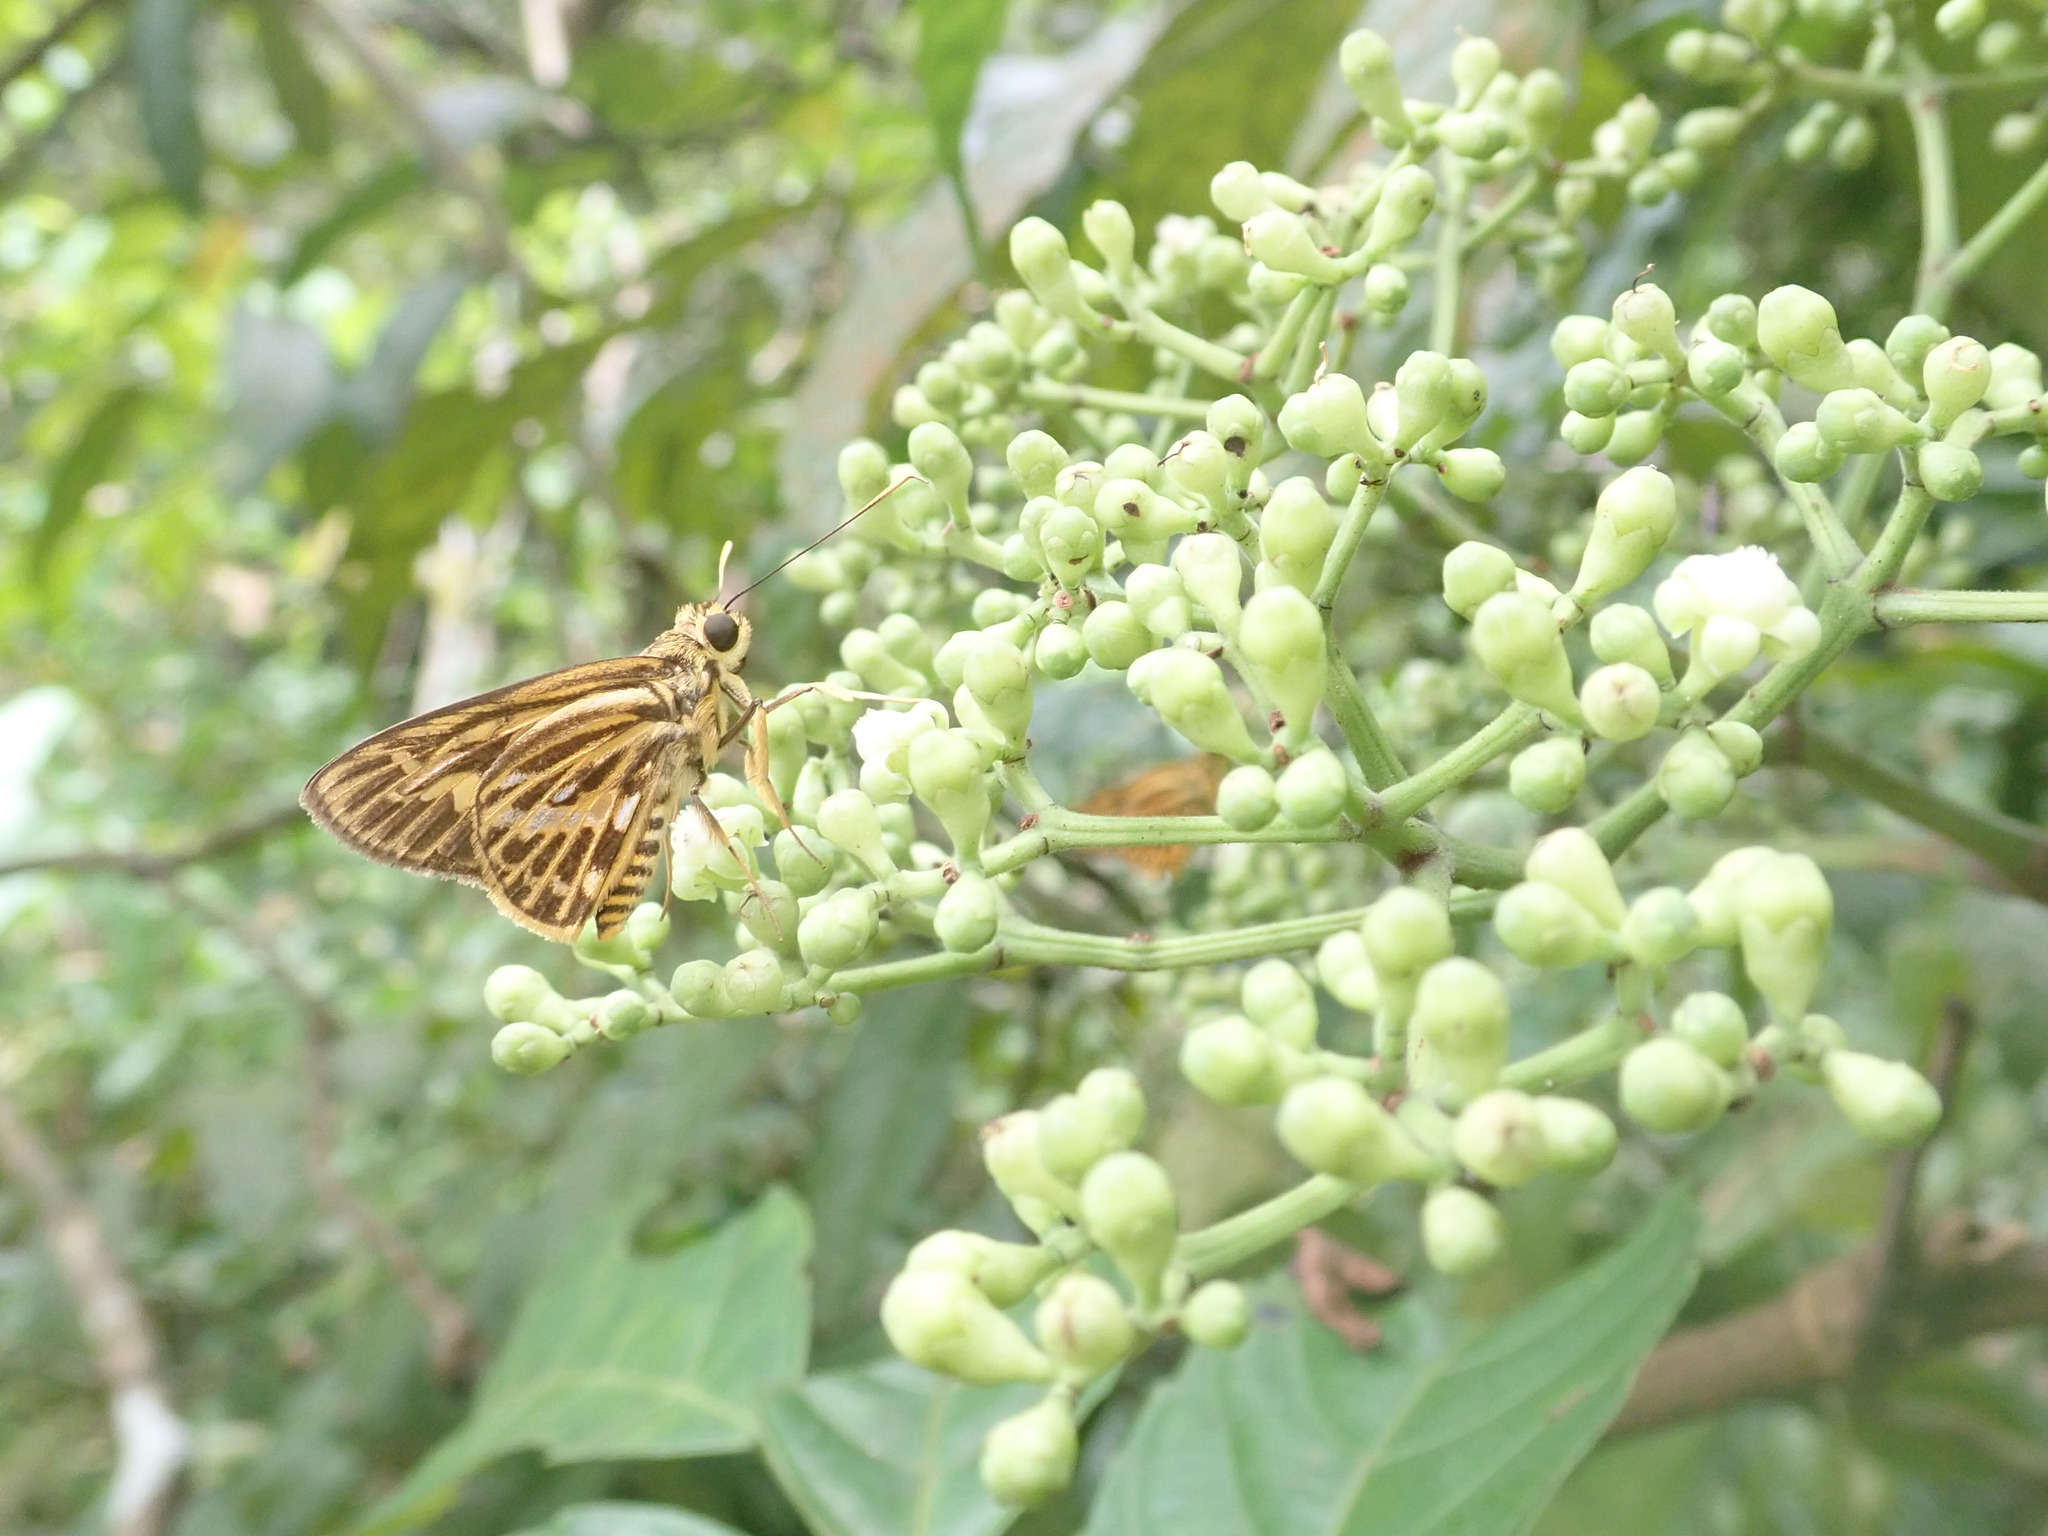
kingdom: Animalia
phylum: Arthropoda
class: Insecta
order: Lepidoptera
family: Hesperiidae
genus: Pyroneura
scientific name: Pyroneura latoia
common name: Yellow vein lancer
